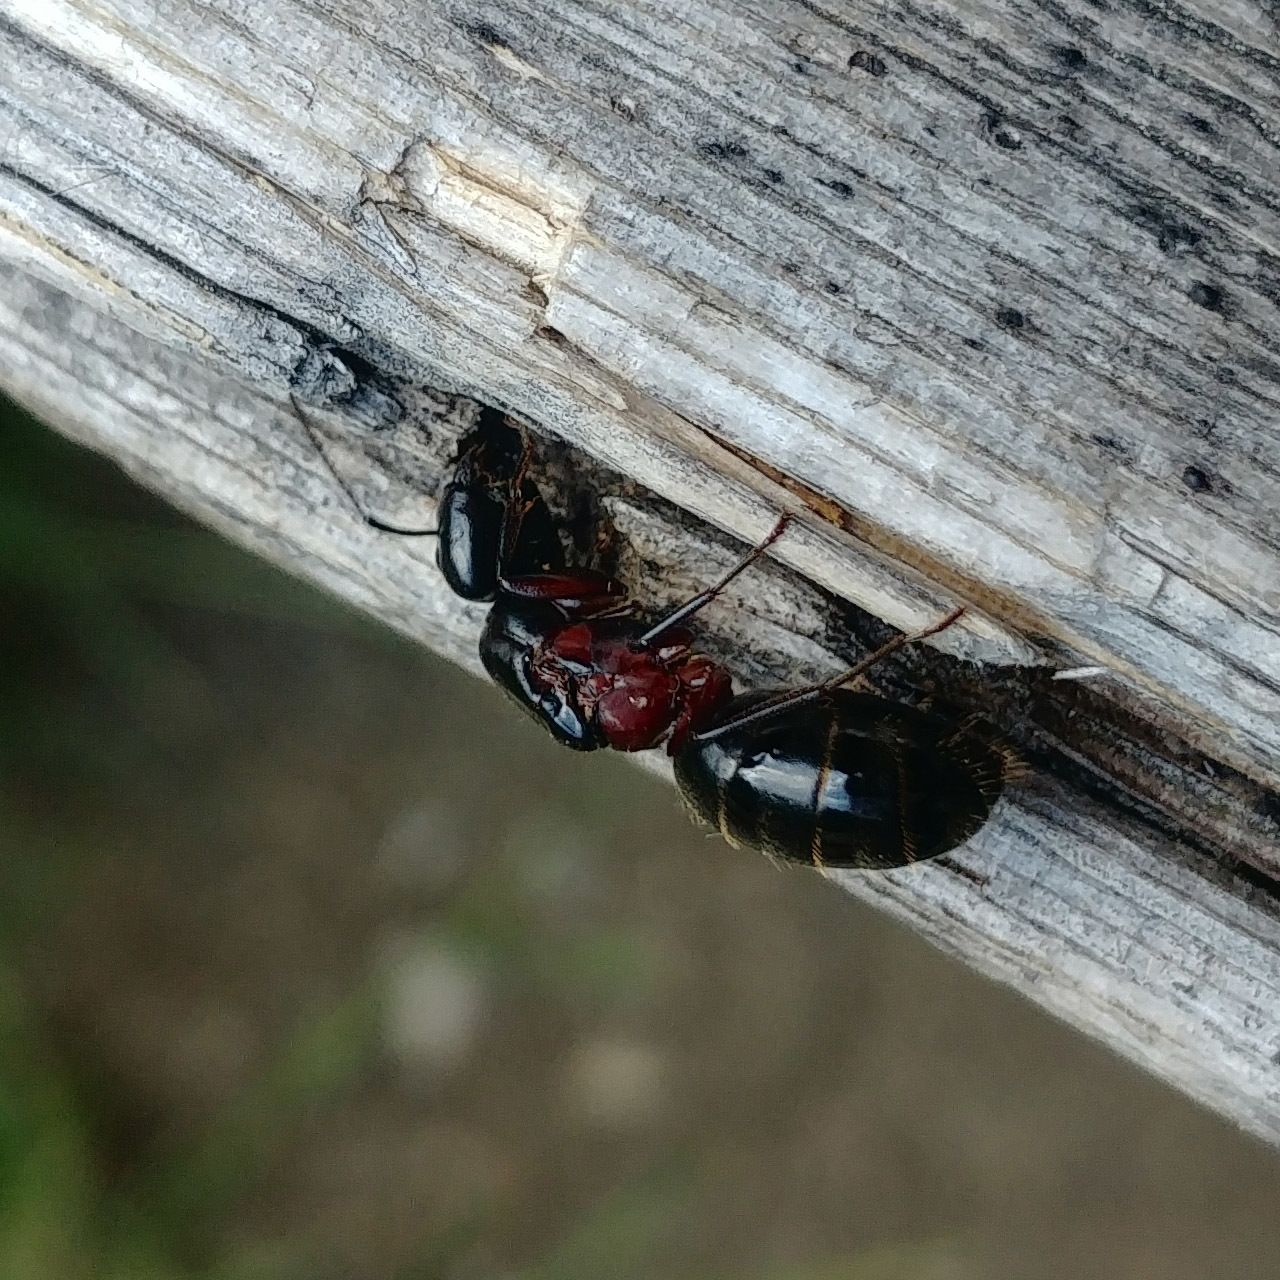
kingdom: Animalia
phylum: Arthropoda
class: Insecta
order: Hymenoptera
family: Formicidae
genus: Camponotus
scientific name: Camponotus herculeanus
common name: Hercules ant
